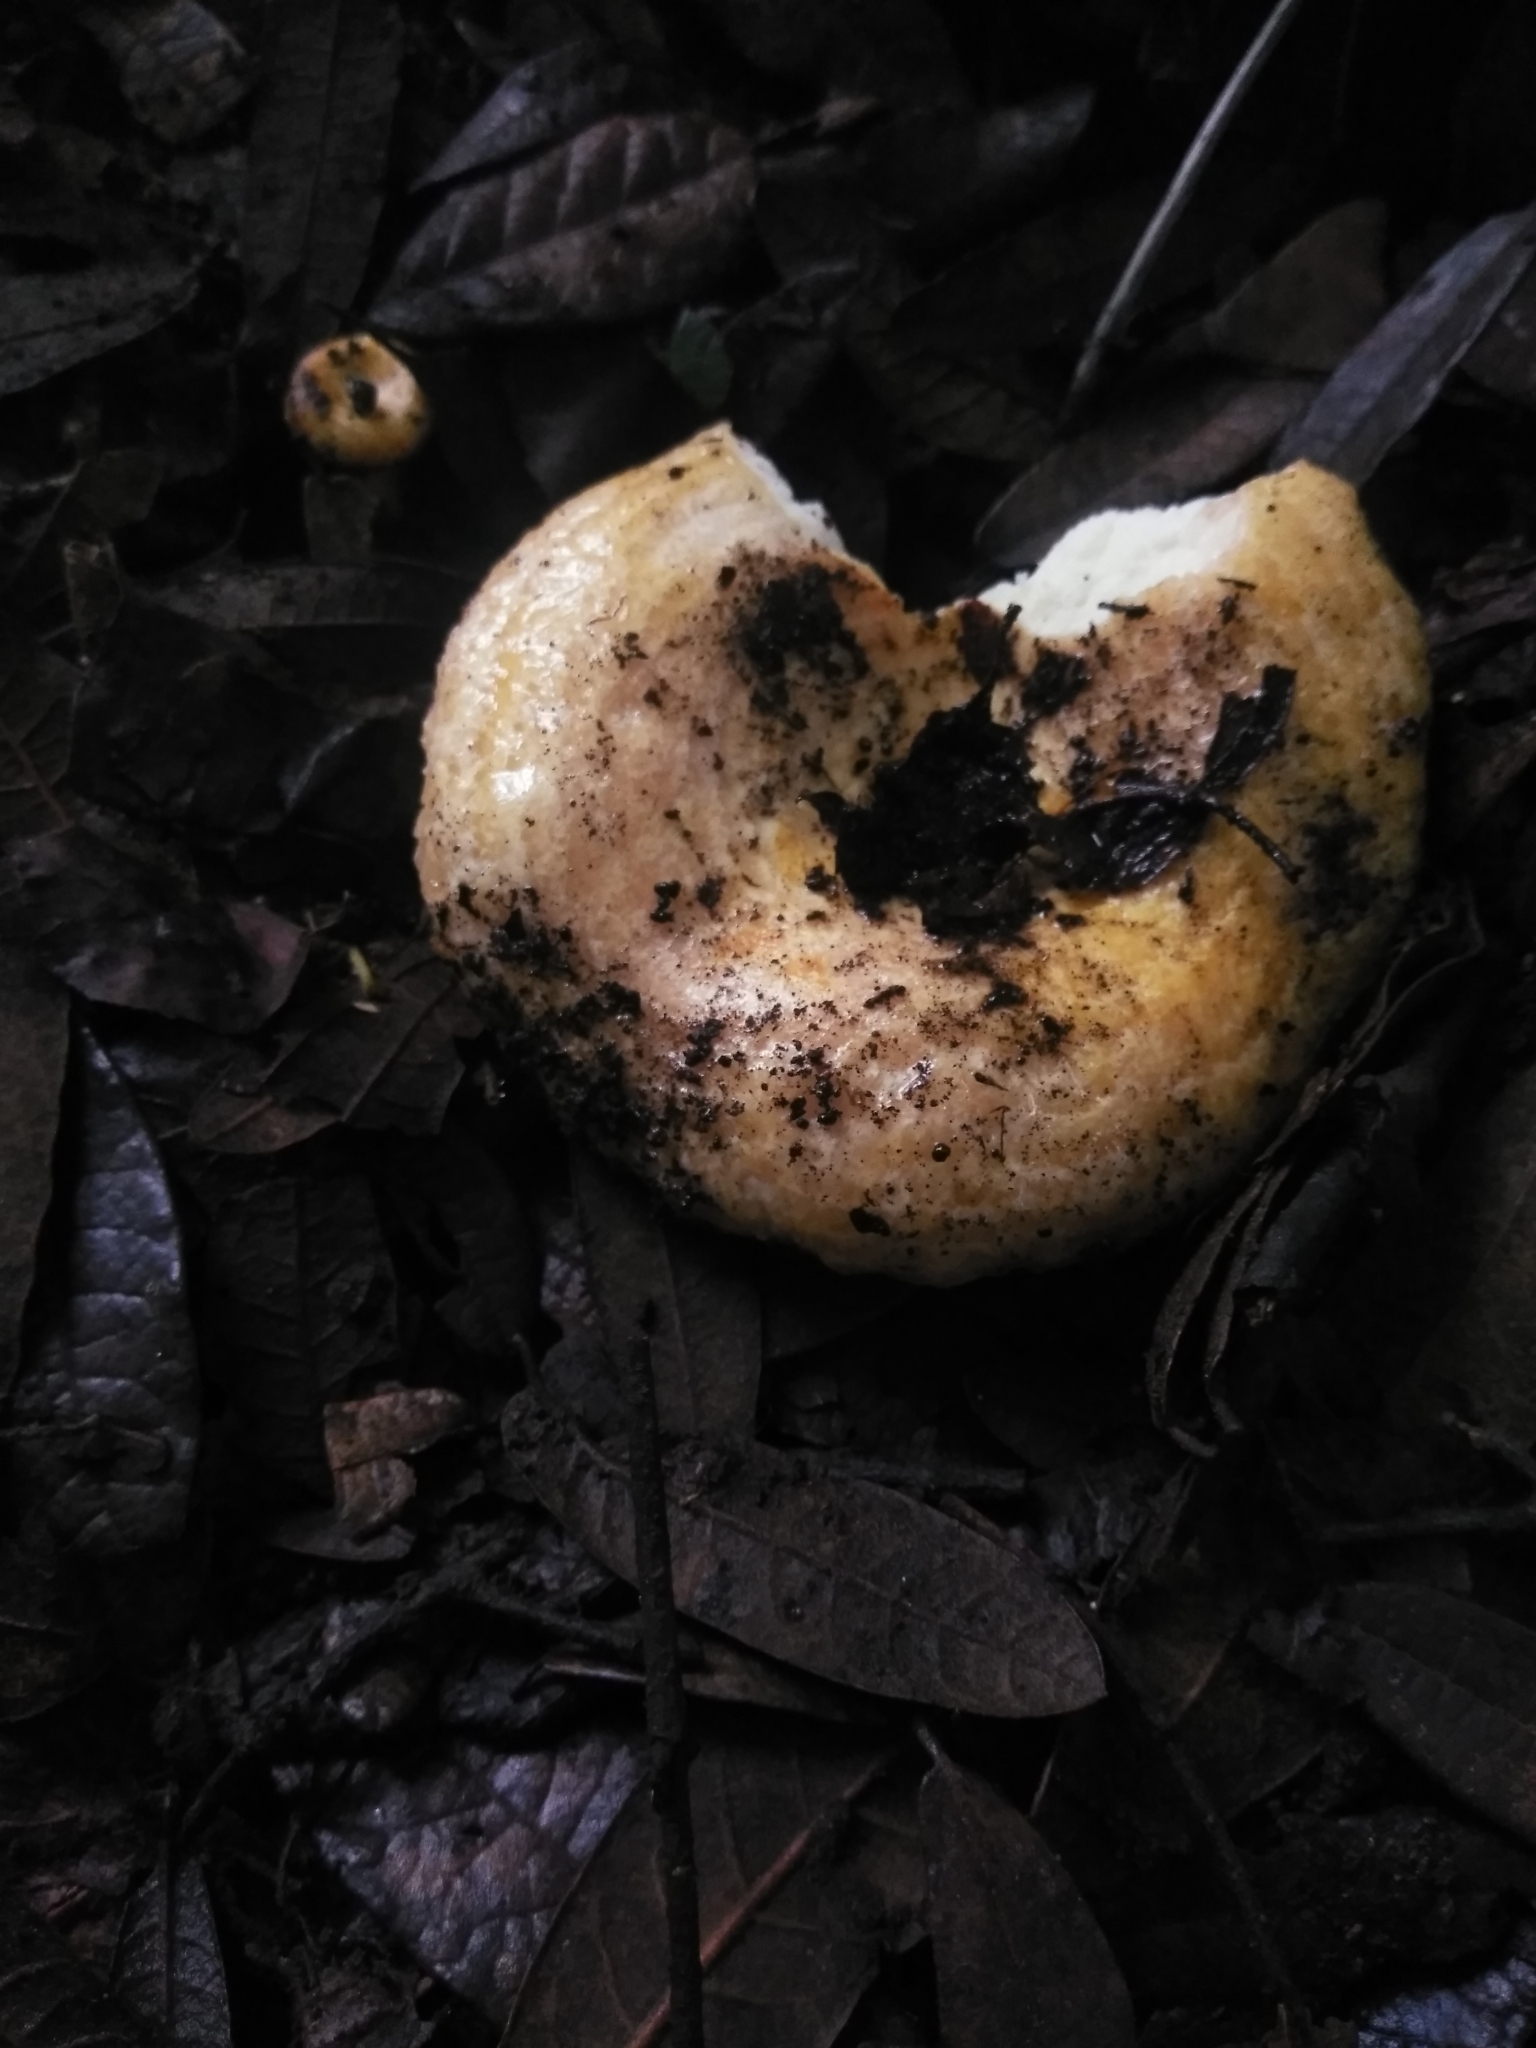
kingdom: Fungi
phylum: Basidiomycota
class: Agaricomycetes
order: Russulales
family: Russulaceae
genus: Lactarius
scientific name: Lactarius pubescens
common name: Bearded milkcap
